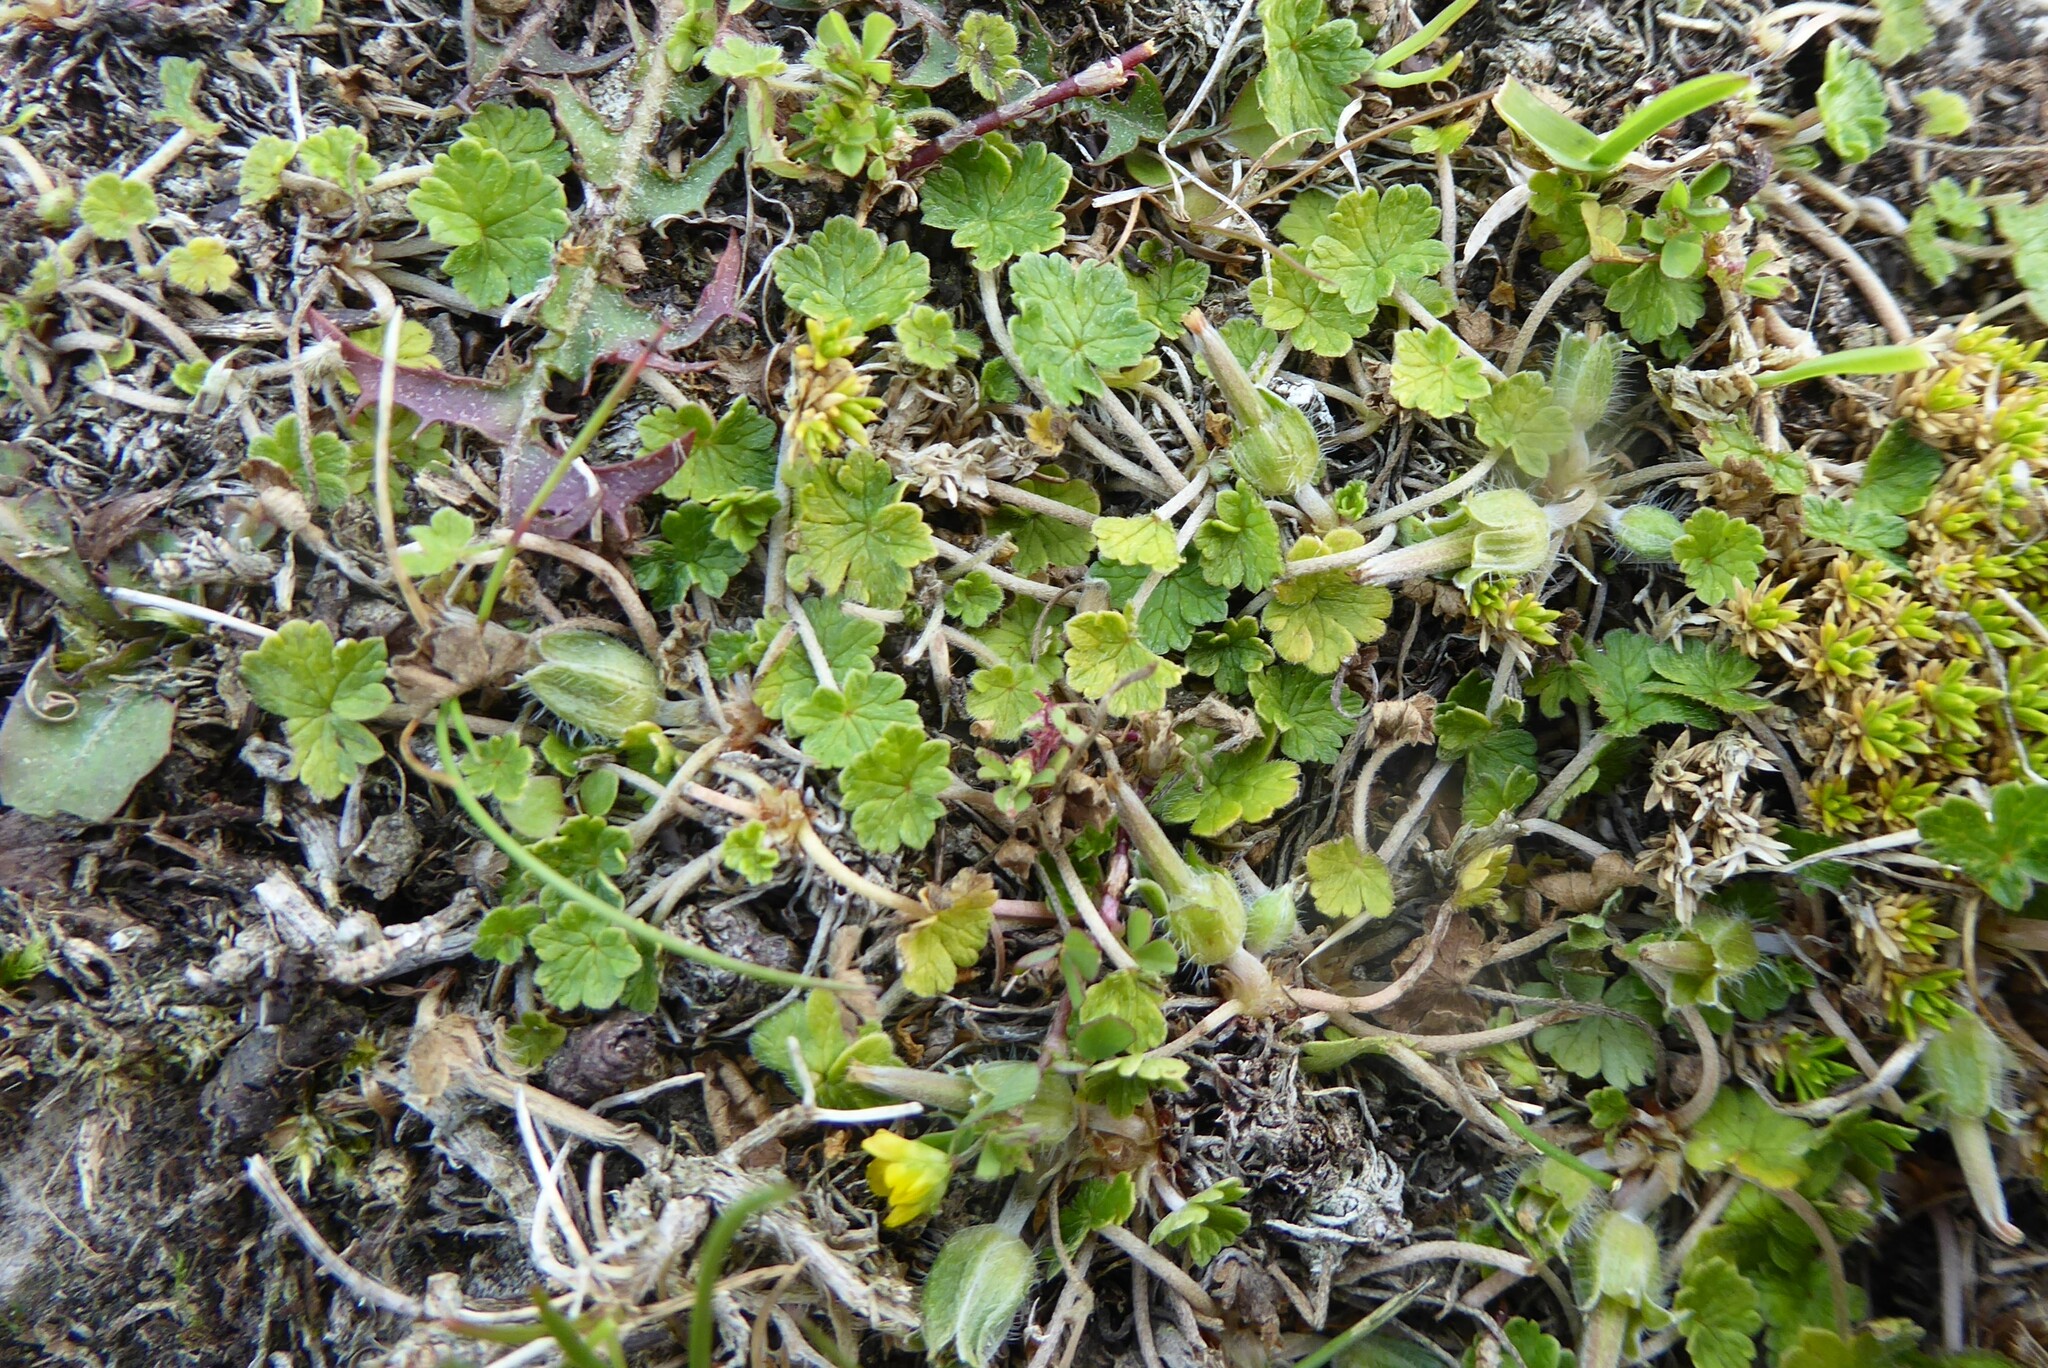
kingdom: Plantae
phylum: Tracheophyta
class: Magnoliopsida
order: Geraniales
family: Geraniaceae
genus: Geranium
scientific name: Geranium brevicaule
